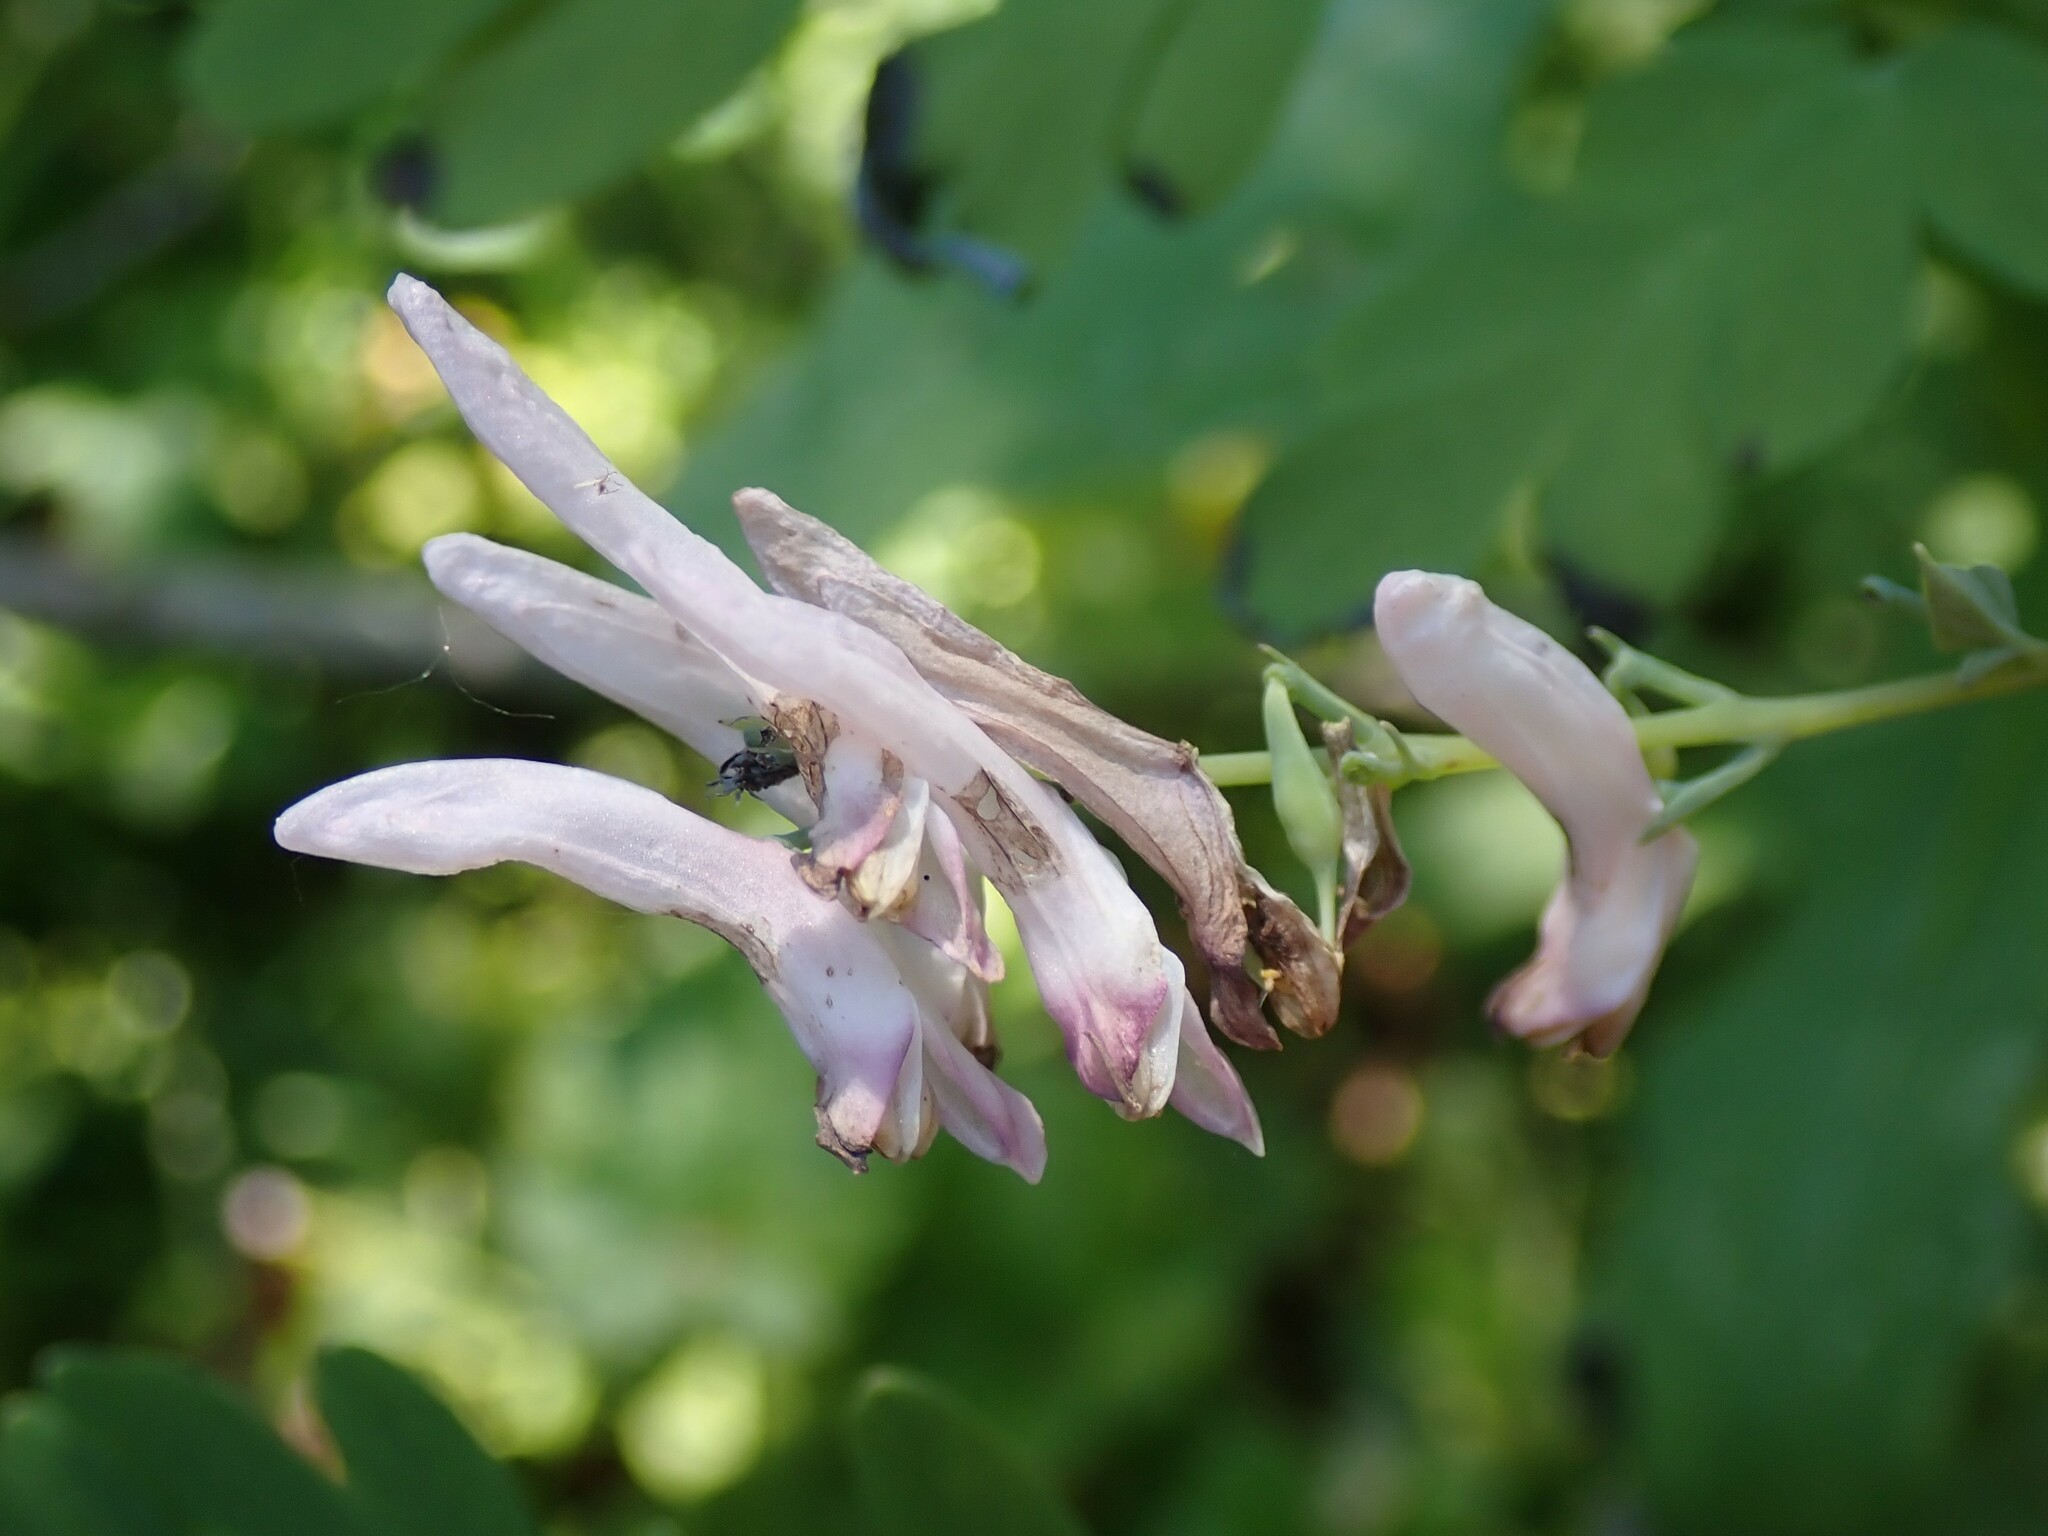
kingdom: Plantae
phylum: Tracheophyta
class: Magnoliopsida
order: Ranunculales
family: Papaveraceae
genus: Corydalis
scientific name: Corydalis scouleri
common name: Scouler's corydalis
